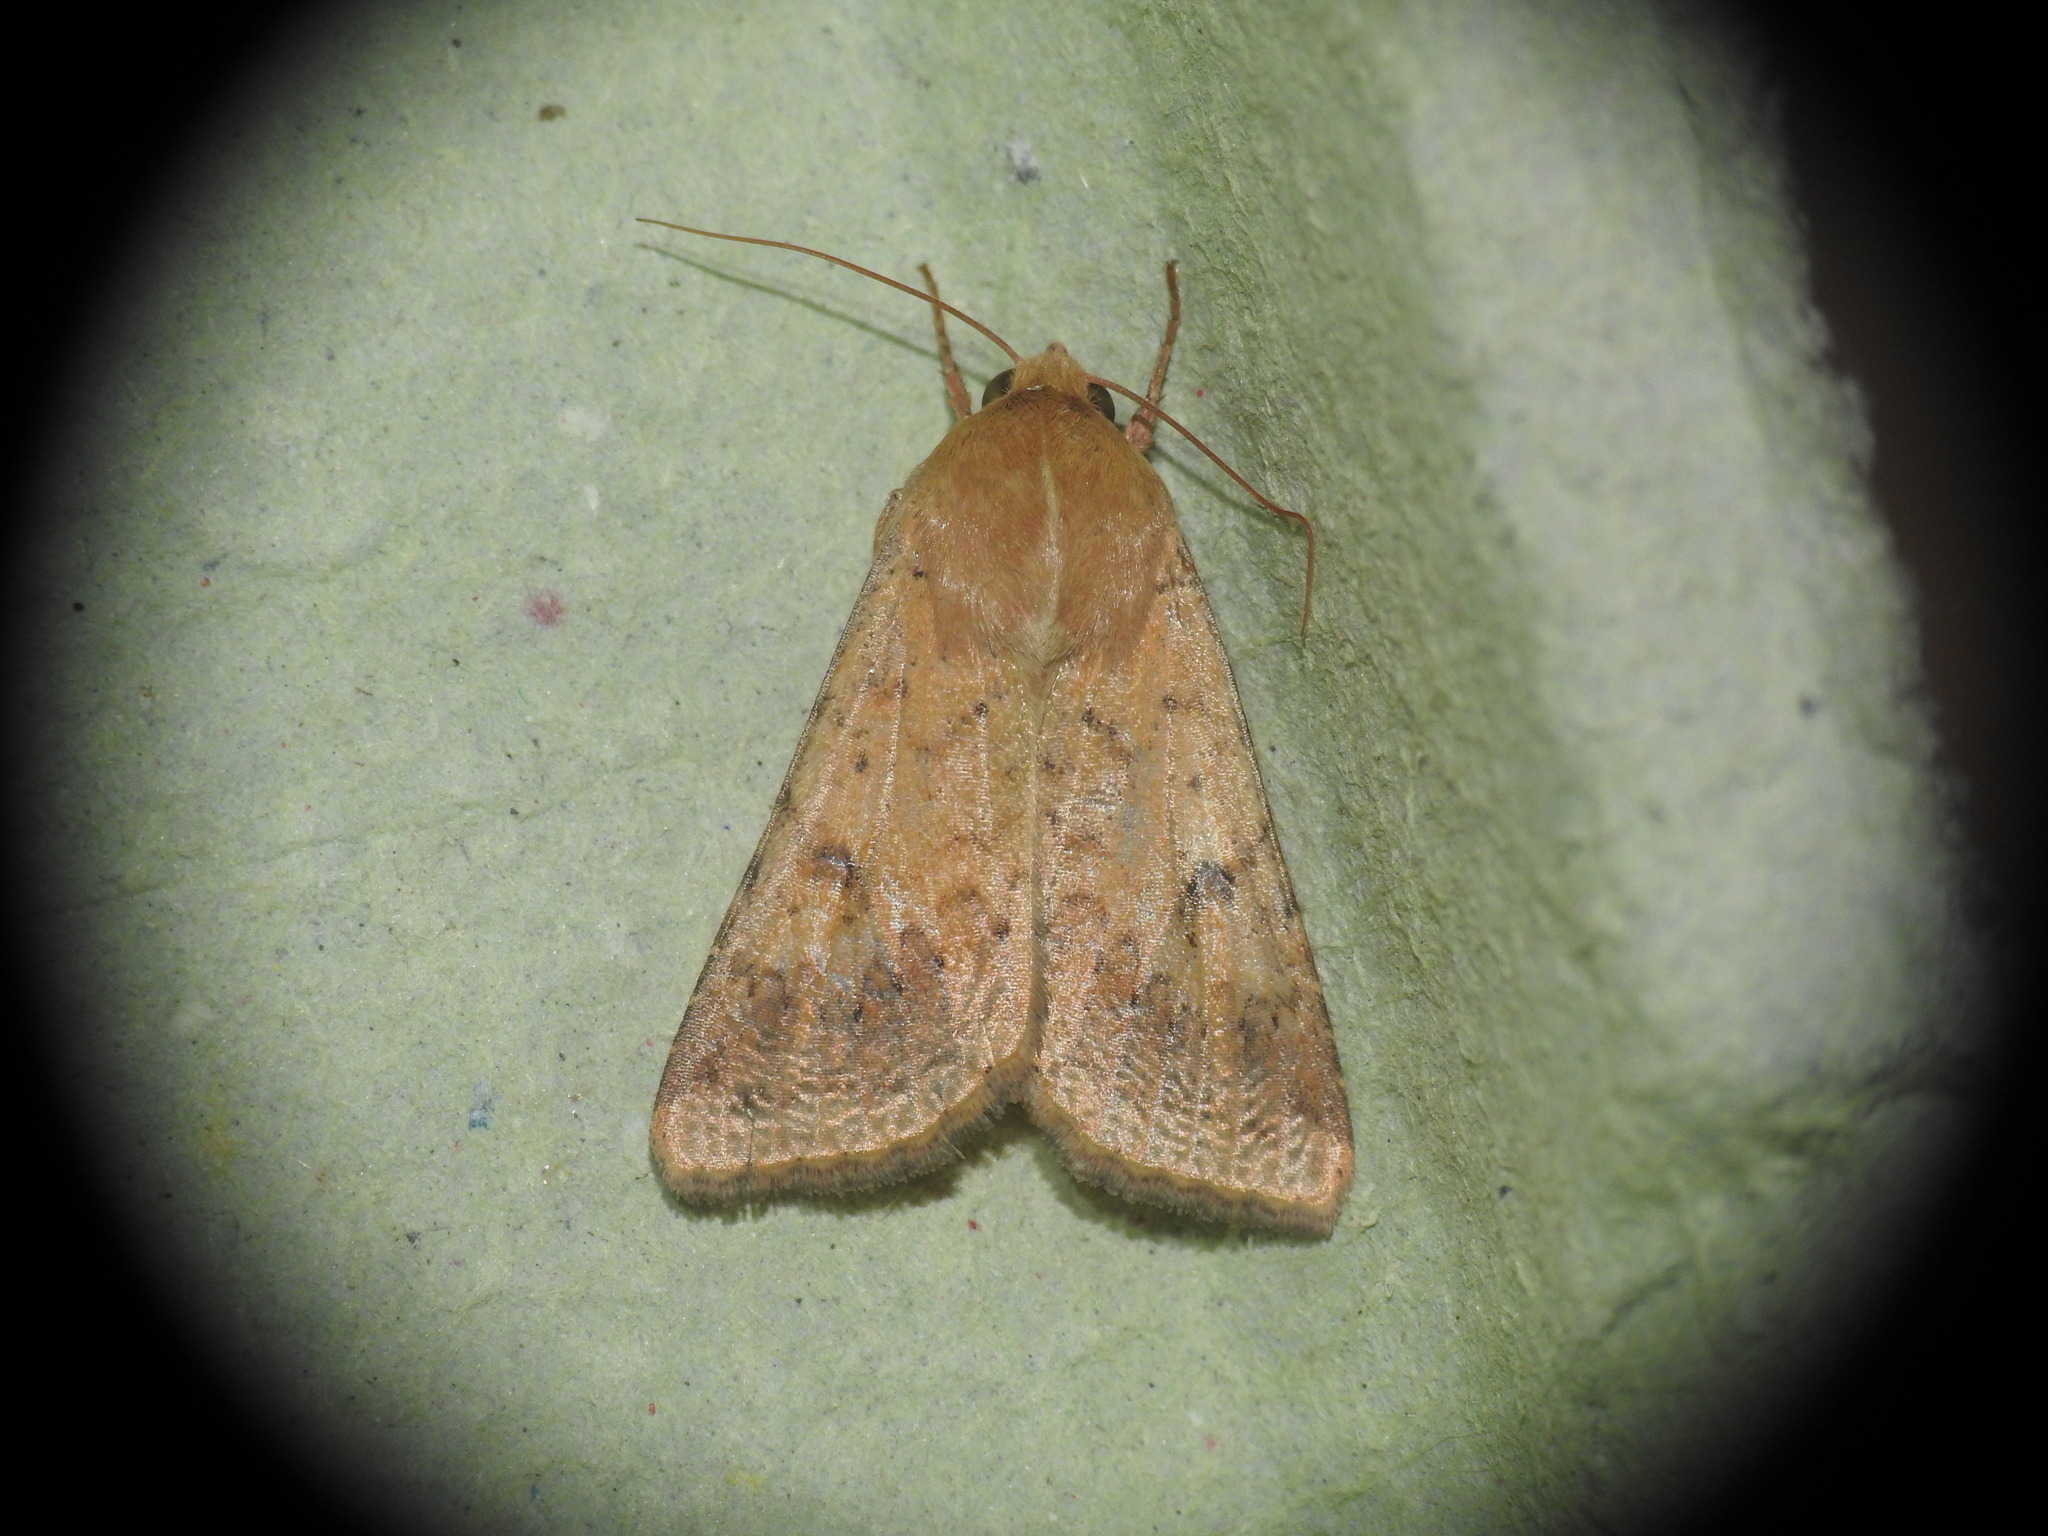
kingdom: Animalia
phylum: Arthropoda
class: Insecta
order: Lepidoptera
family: Noctuidae
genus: Helicoverpa
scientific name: Helicoverpa armigera
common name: Cotton bollworm
